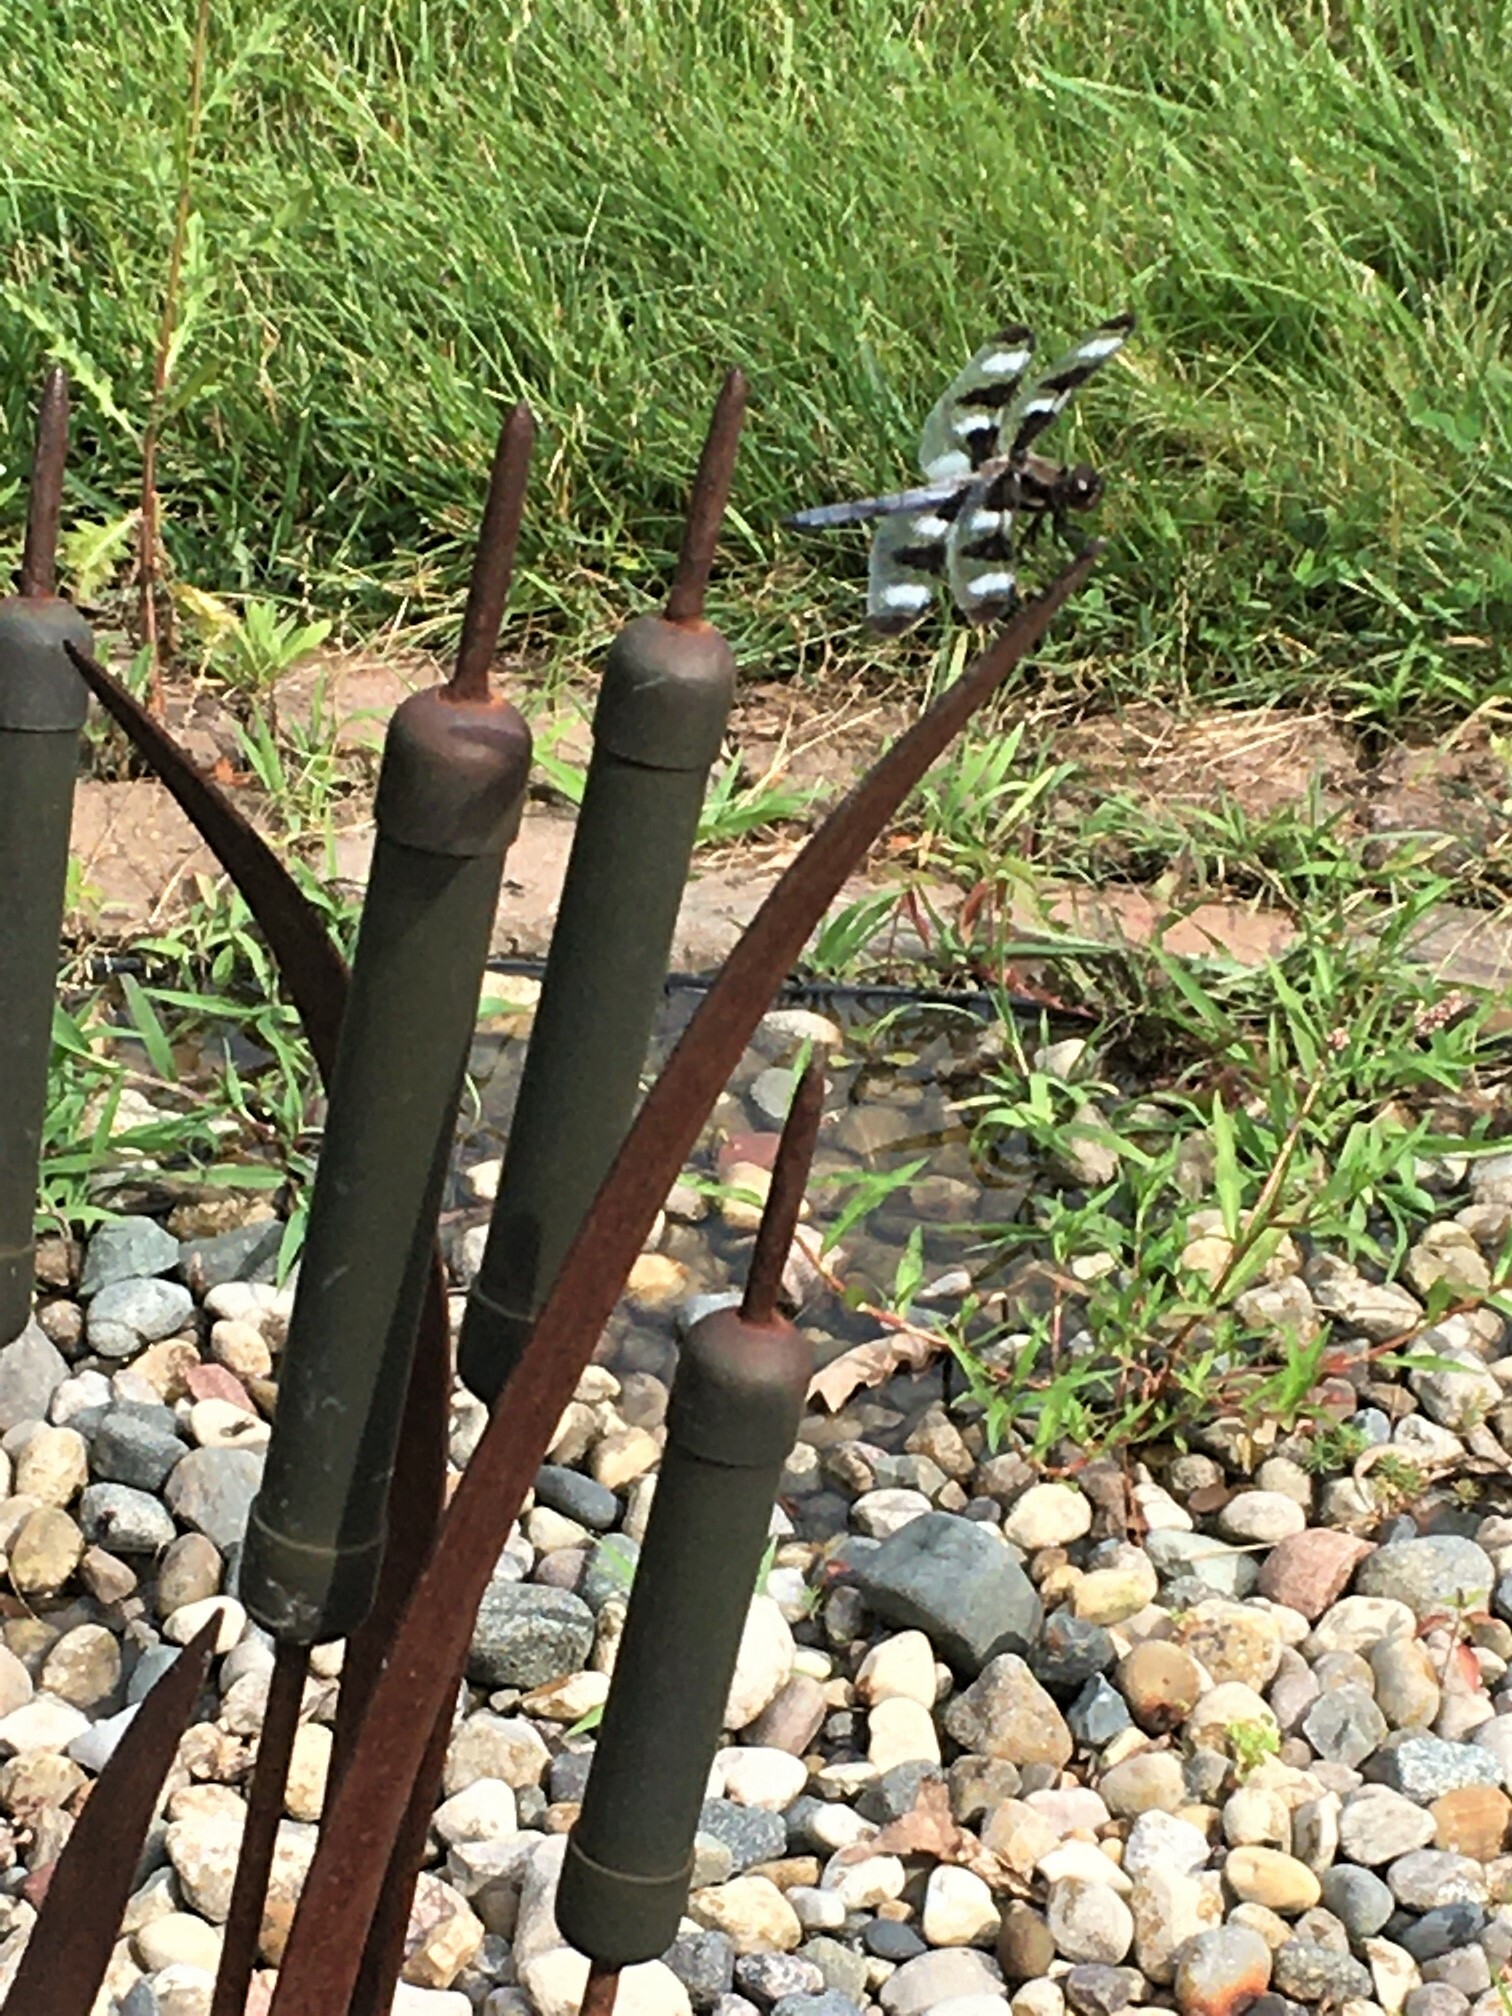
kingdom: Animalia
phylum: Arthropoda
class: Insecta
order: Odonata
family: Libellulidae
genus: Libellula
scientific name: Libellula pulchella
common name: Twelve-spotted skimmer
